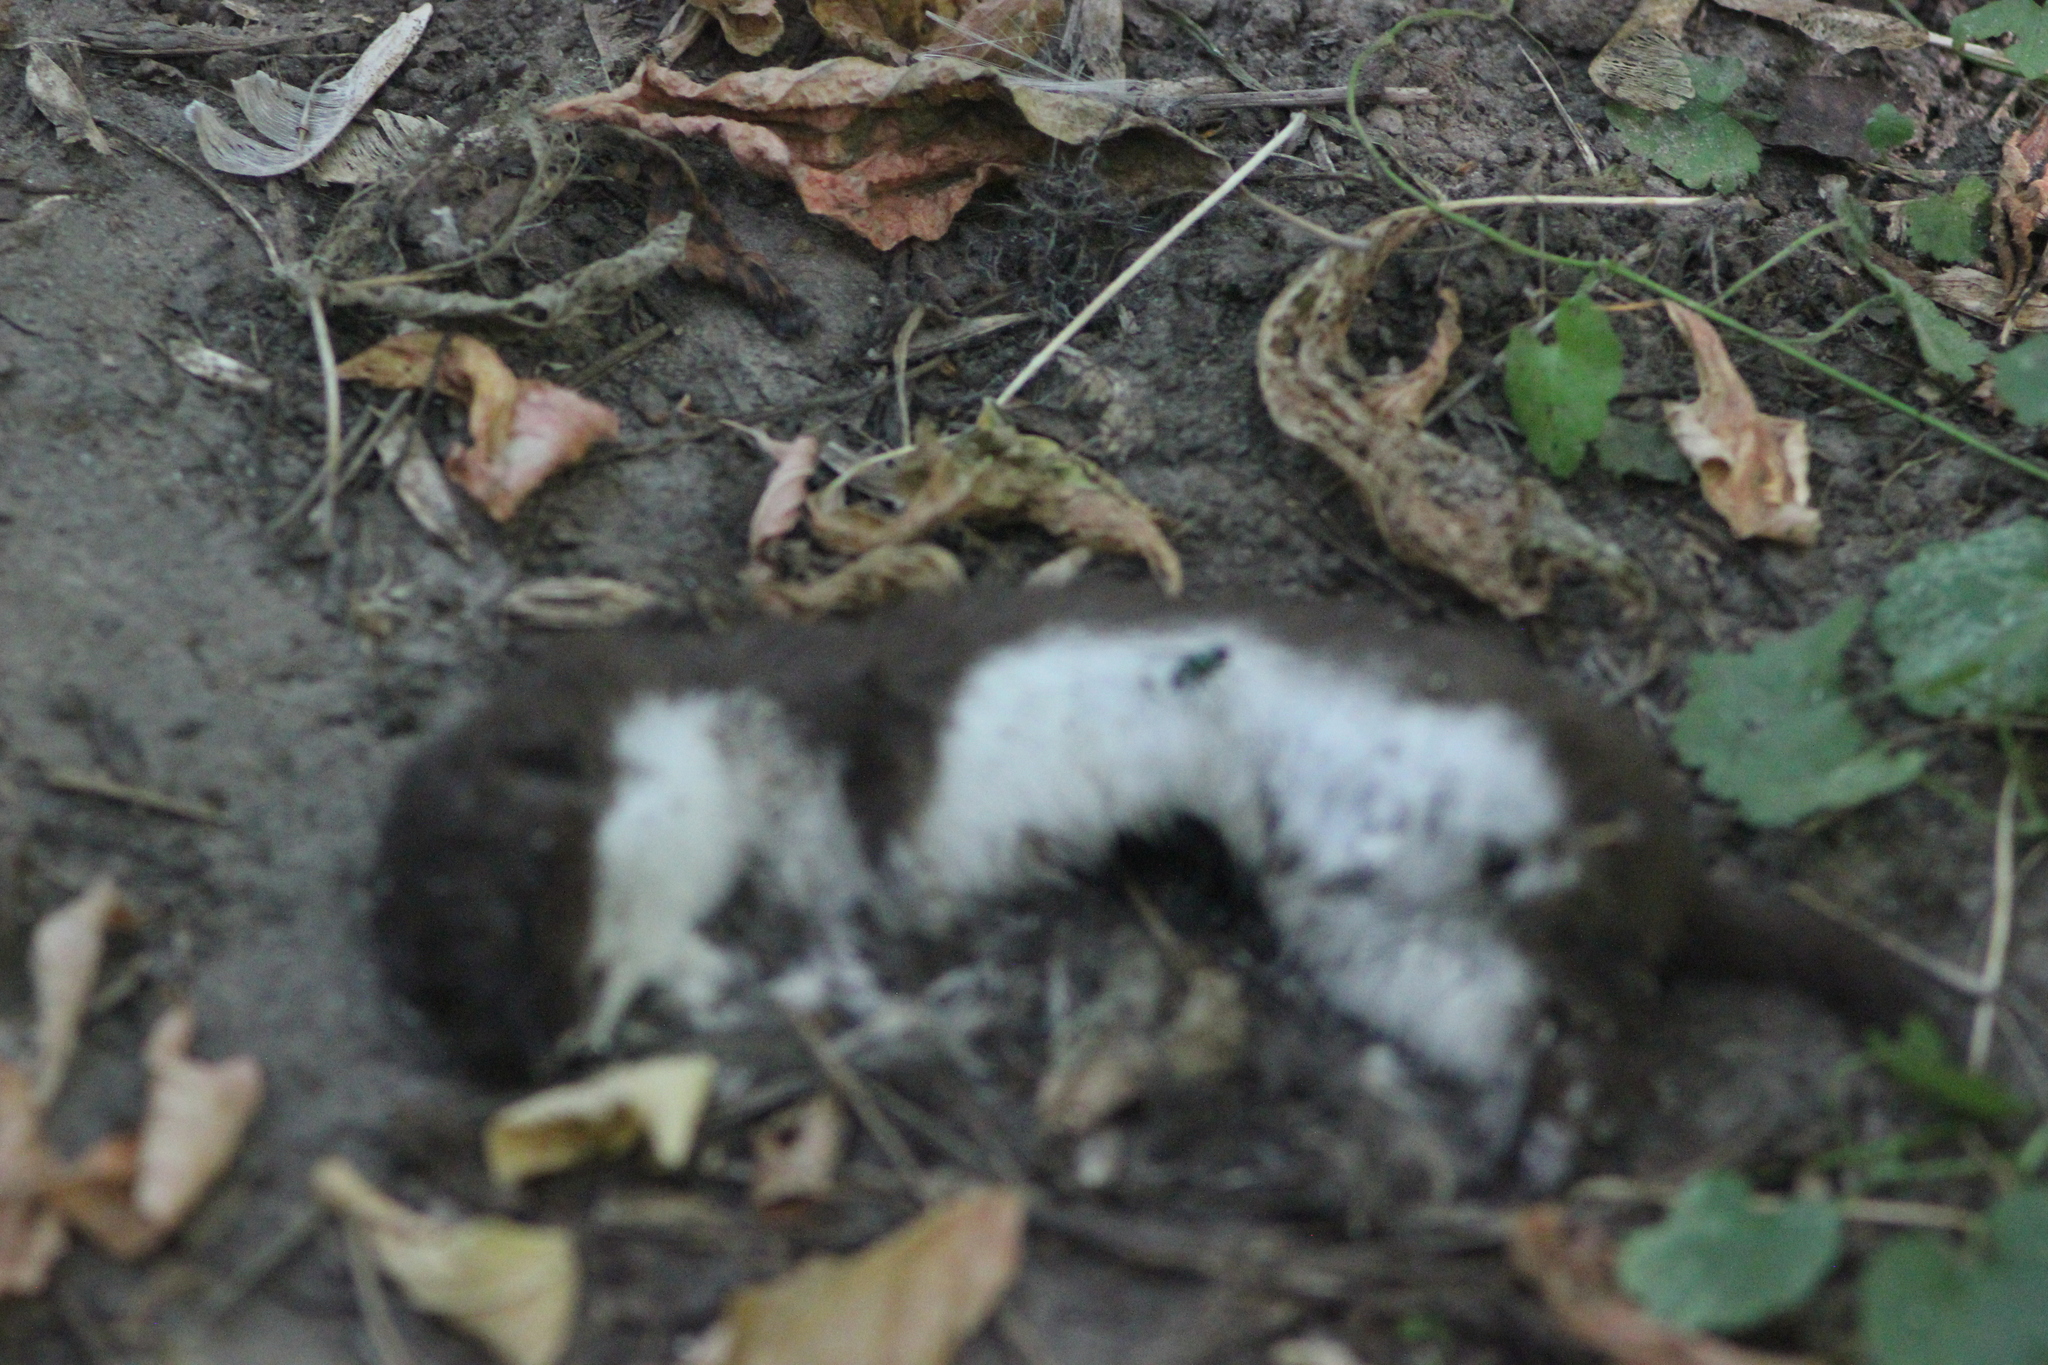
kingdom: Animalia
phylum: Chordata
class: Mammalia
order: Carnivora
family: Mustelidae
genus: Mustela
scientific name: Mustela nivalis
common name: Least weasel
